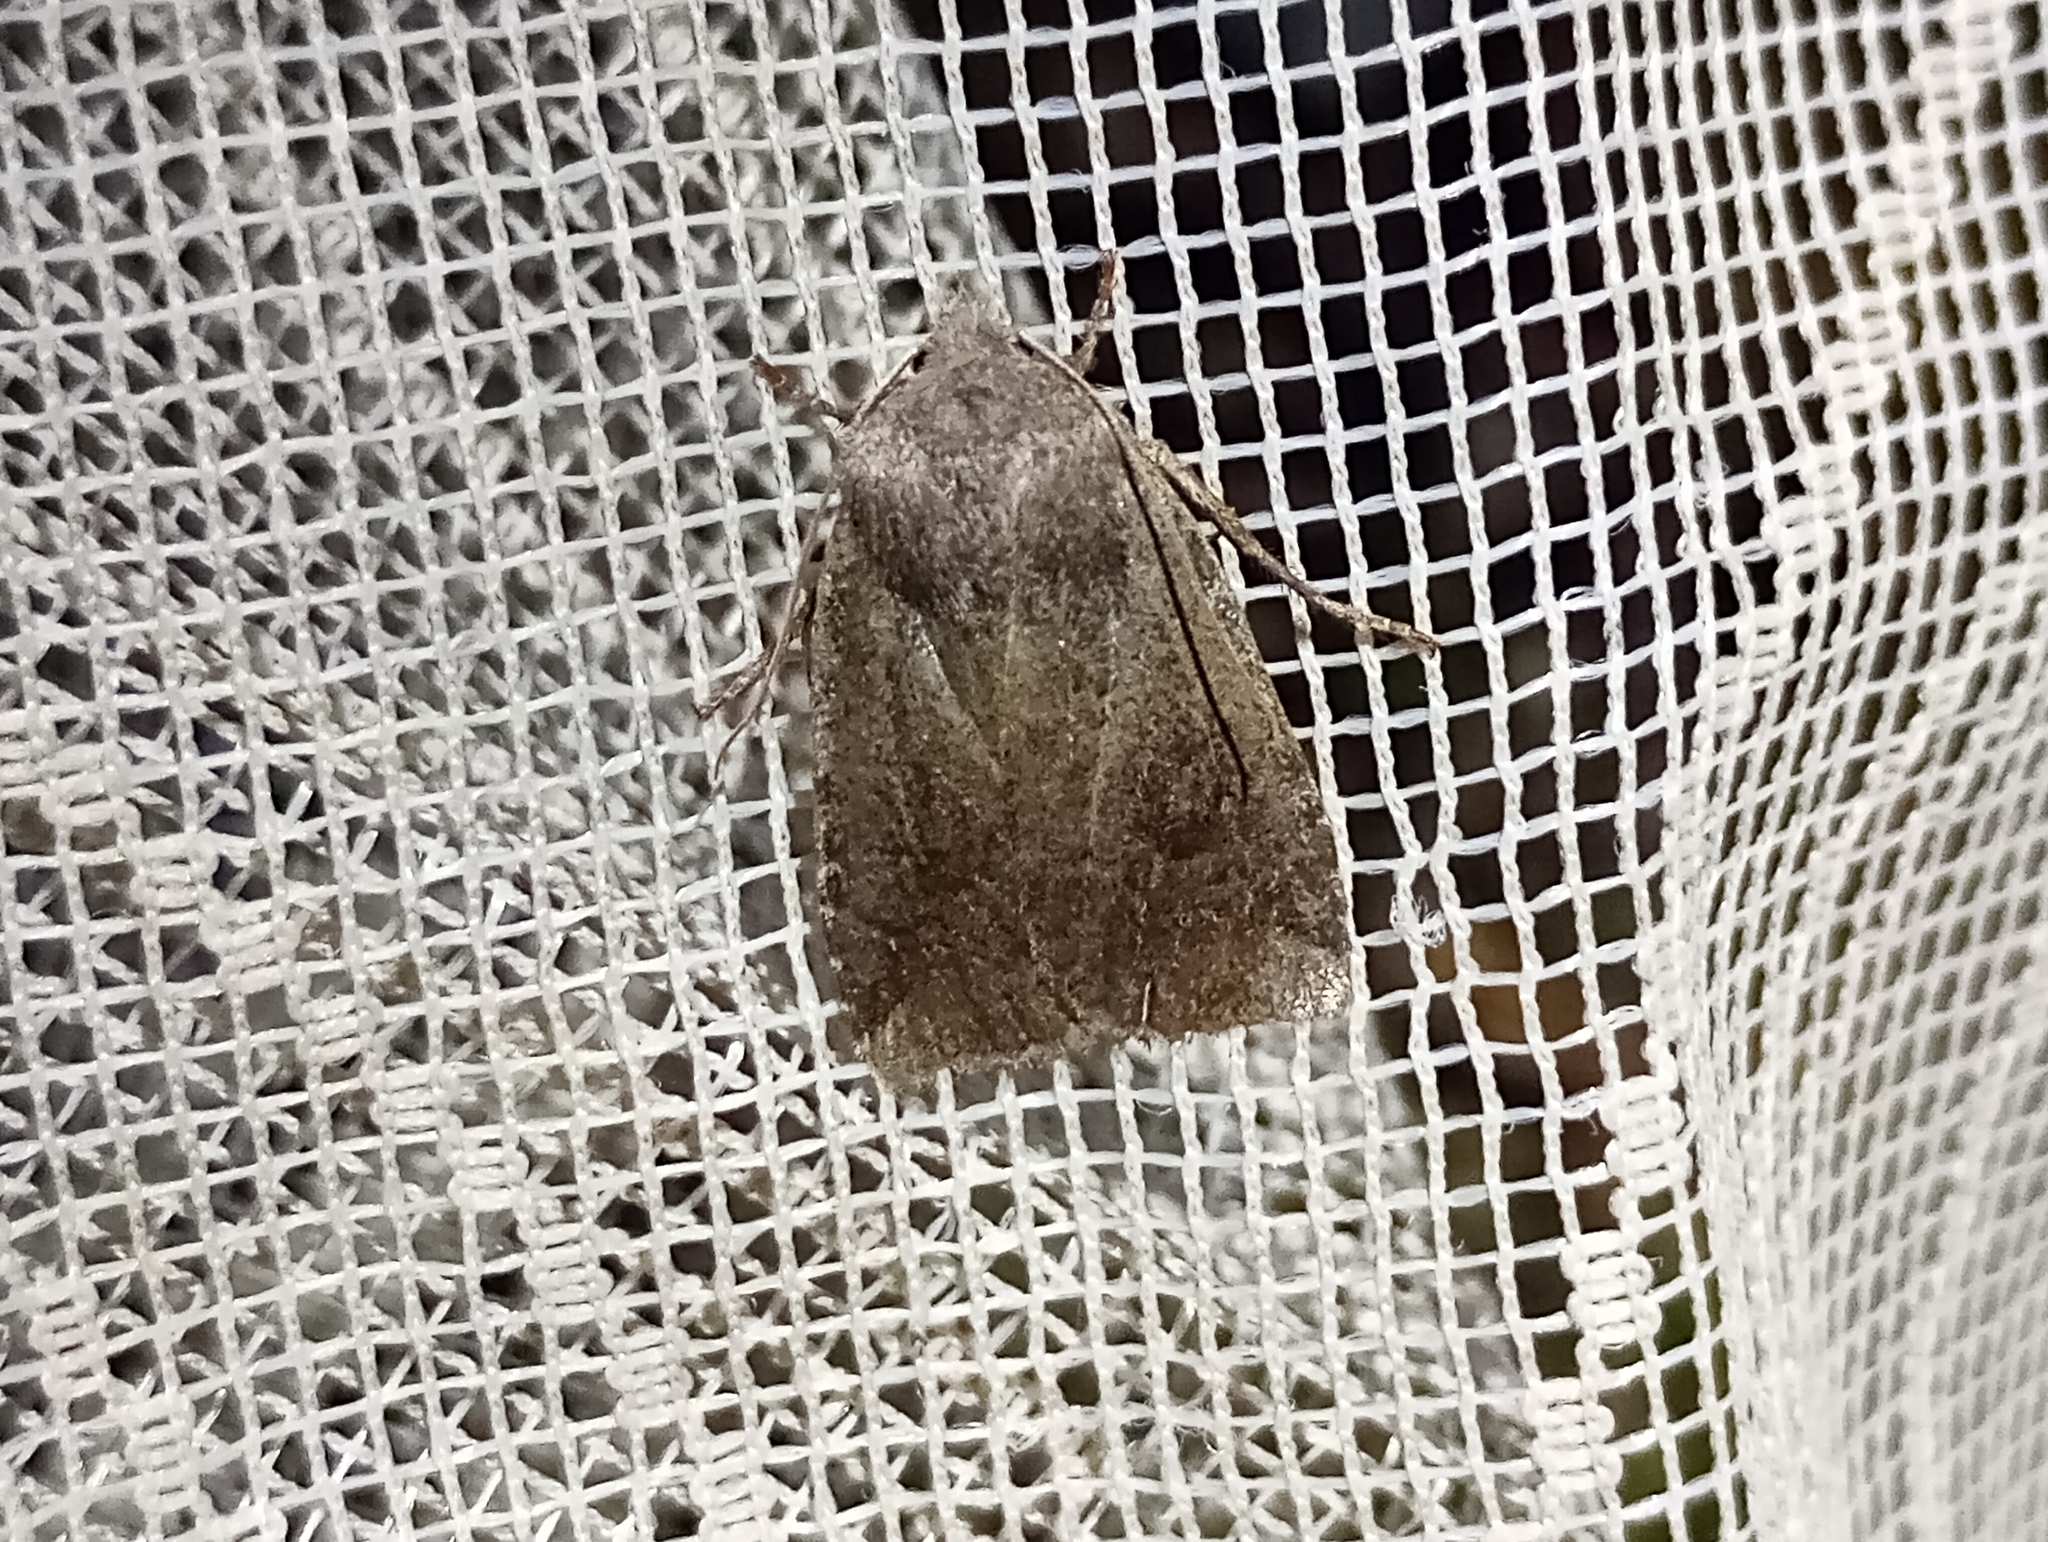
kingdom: Animalia
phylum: Arthropoda
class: Insecta
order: Lepidoptera
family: Noctuidae
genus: Conistra
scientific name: Conistra vaccinii
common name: Chestnut
